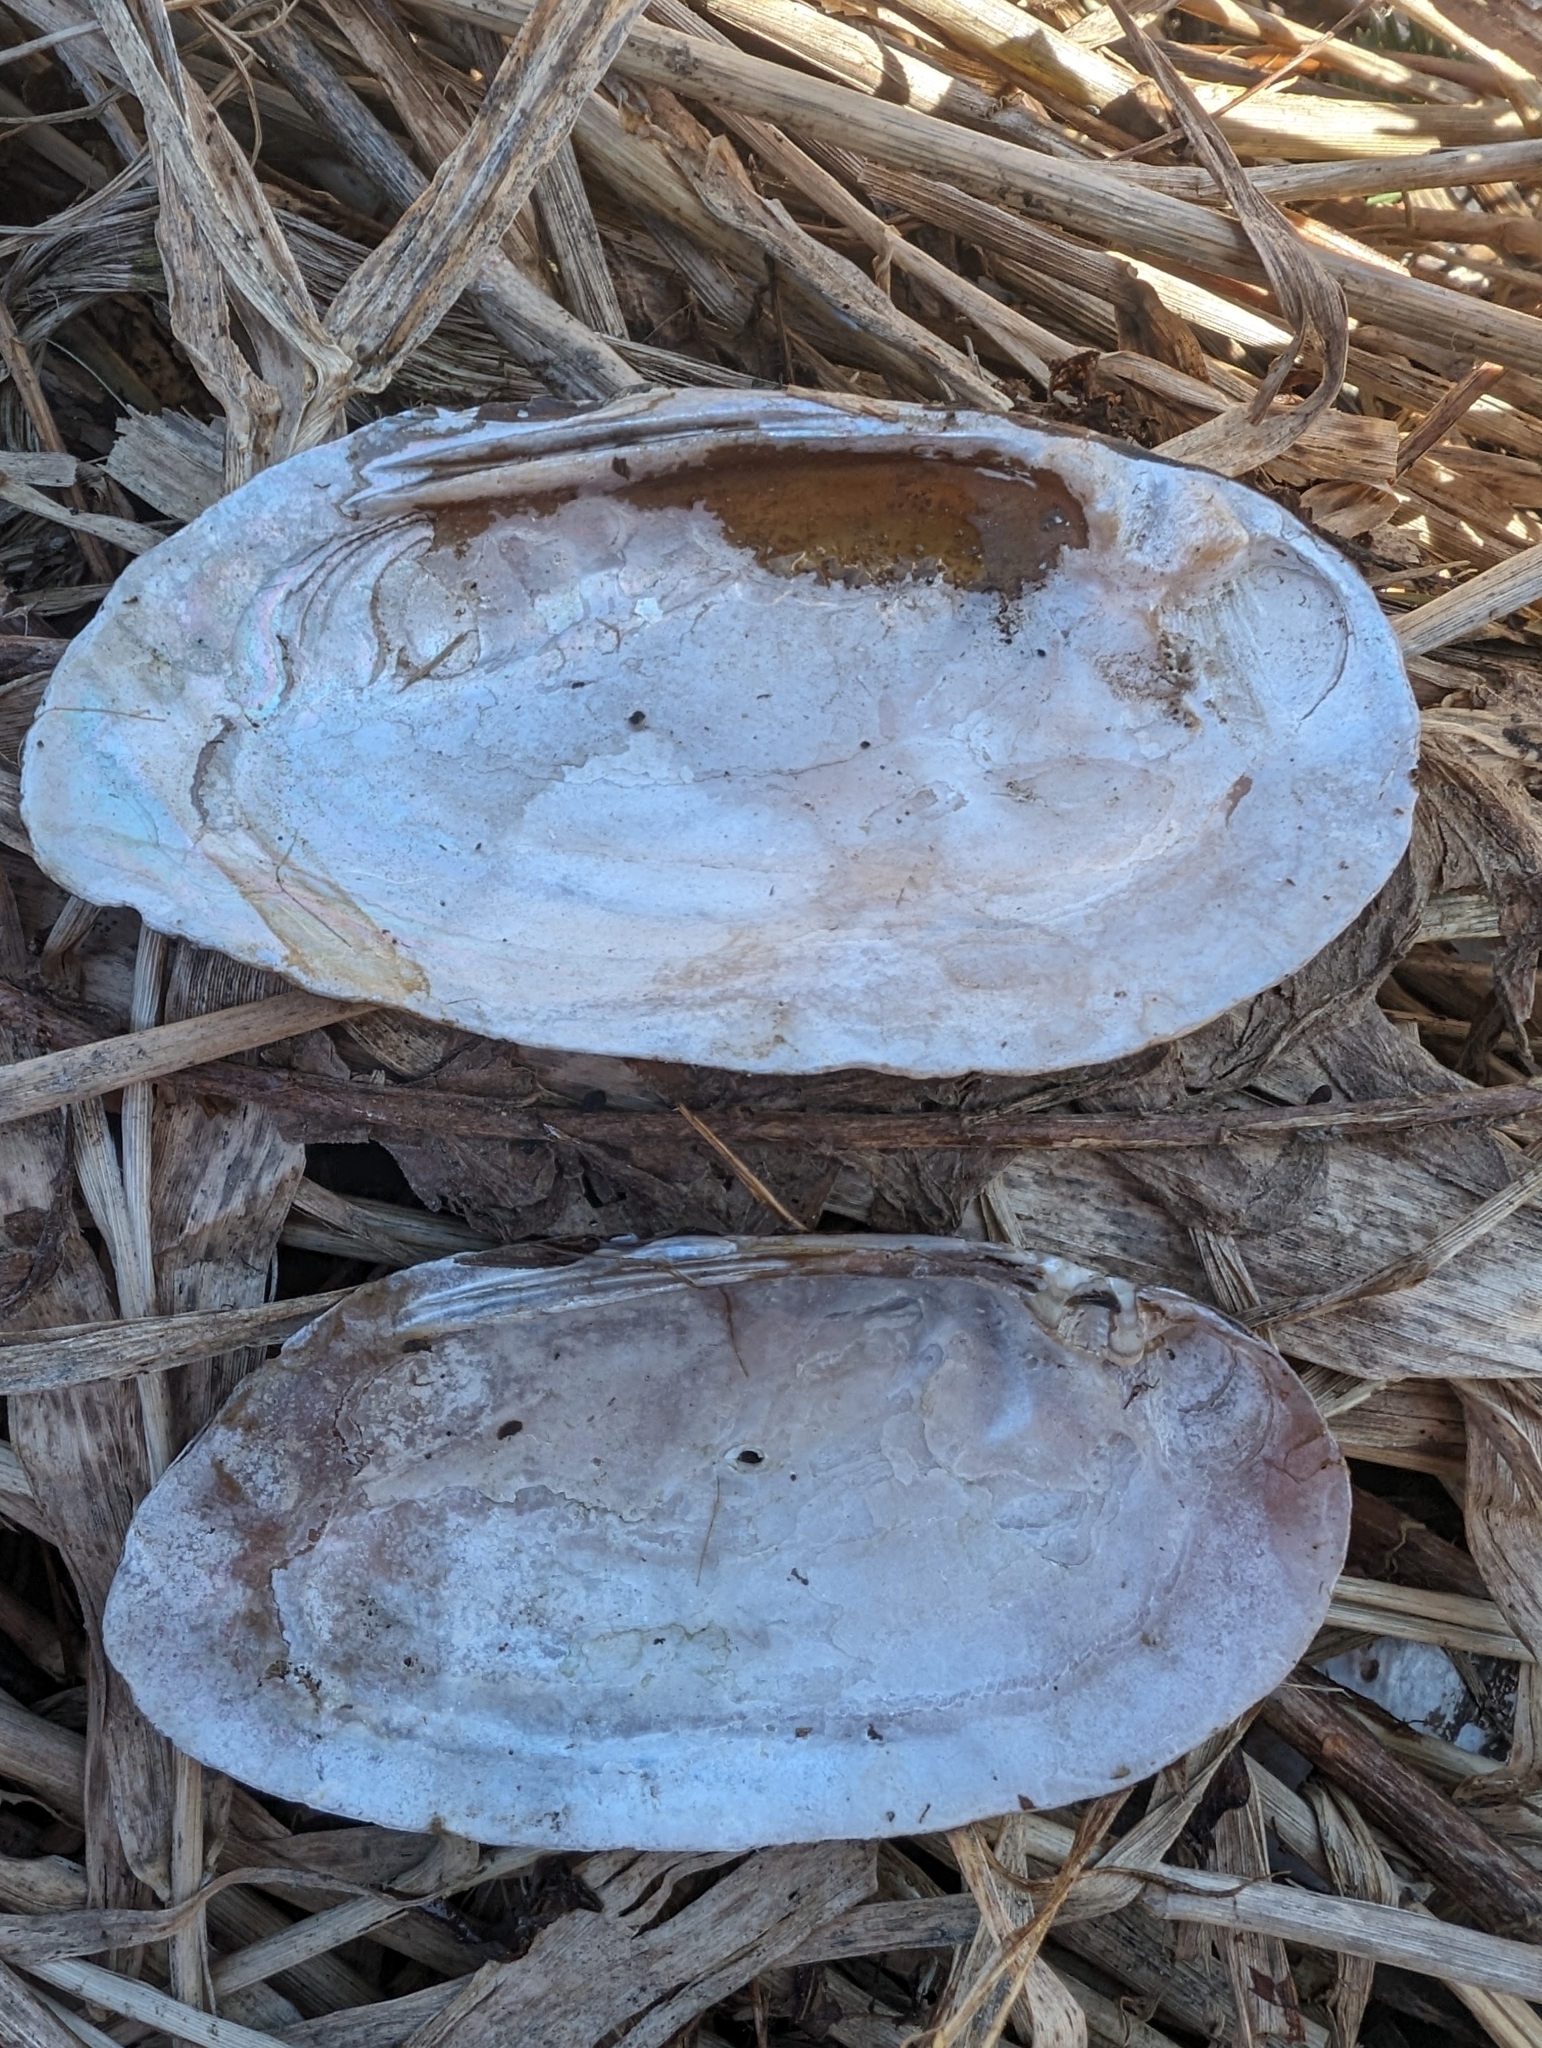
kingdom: Animalia
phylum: Mollusca
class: Bivalvia
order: Unionida
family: Unionidae
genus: Elliptio
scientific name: Elliptio complanata
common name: Eastern elliptio
